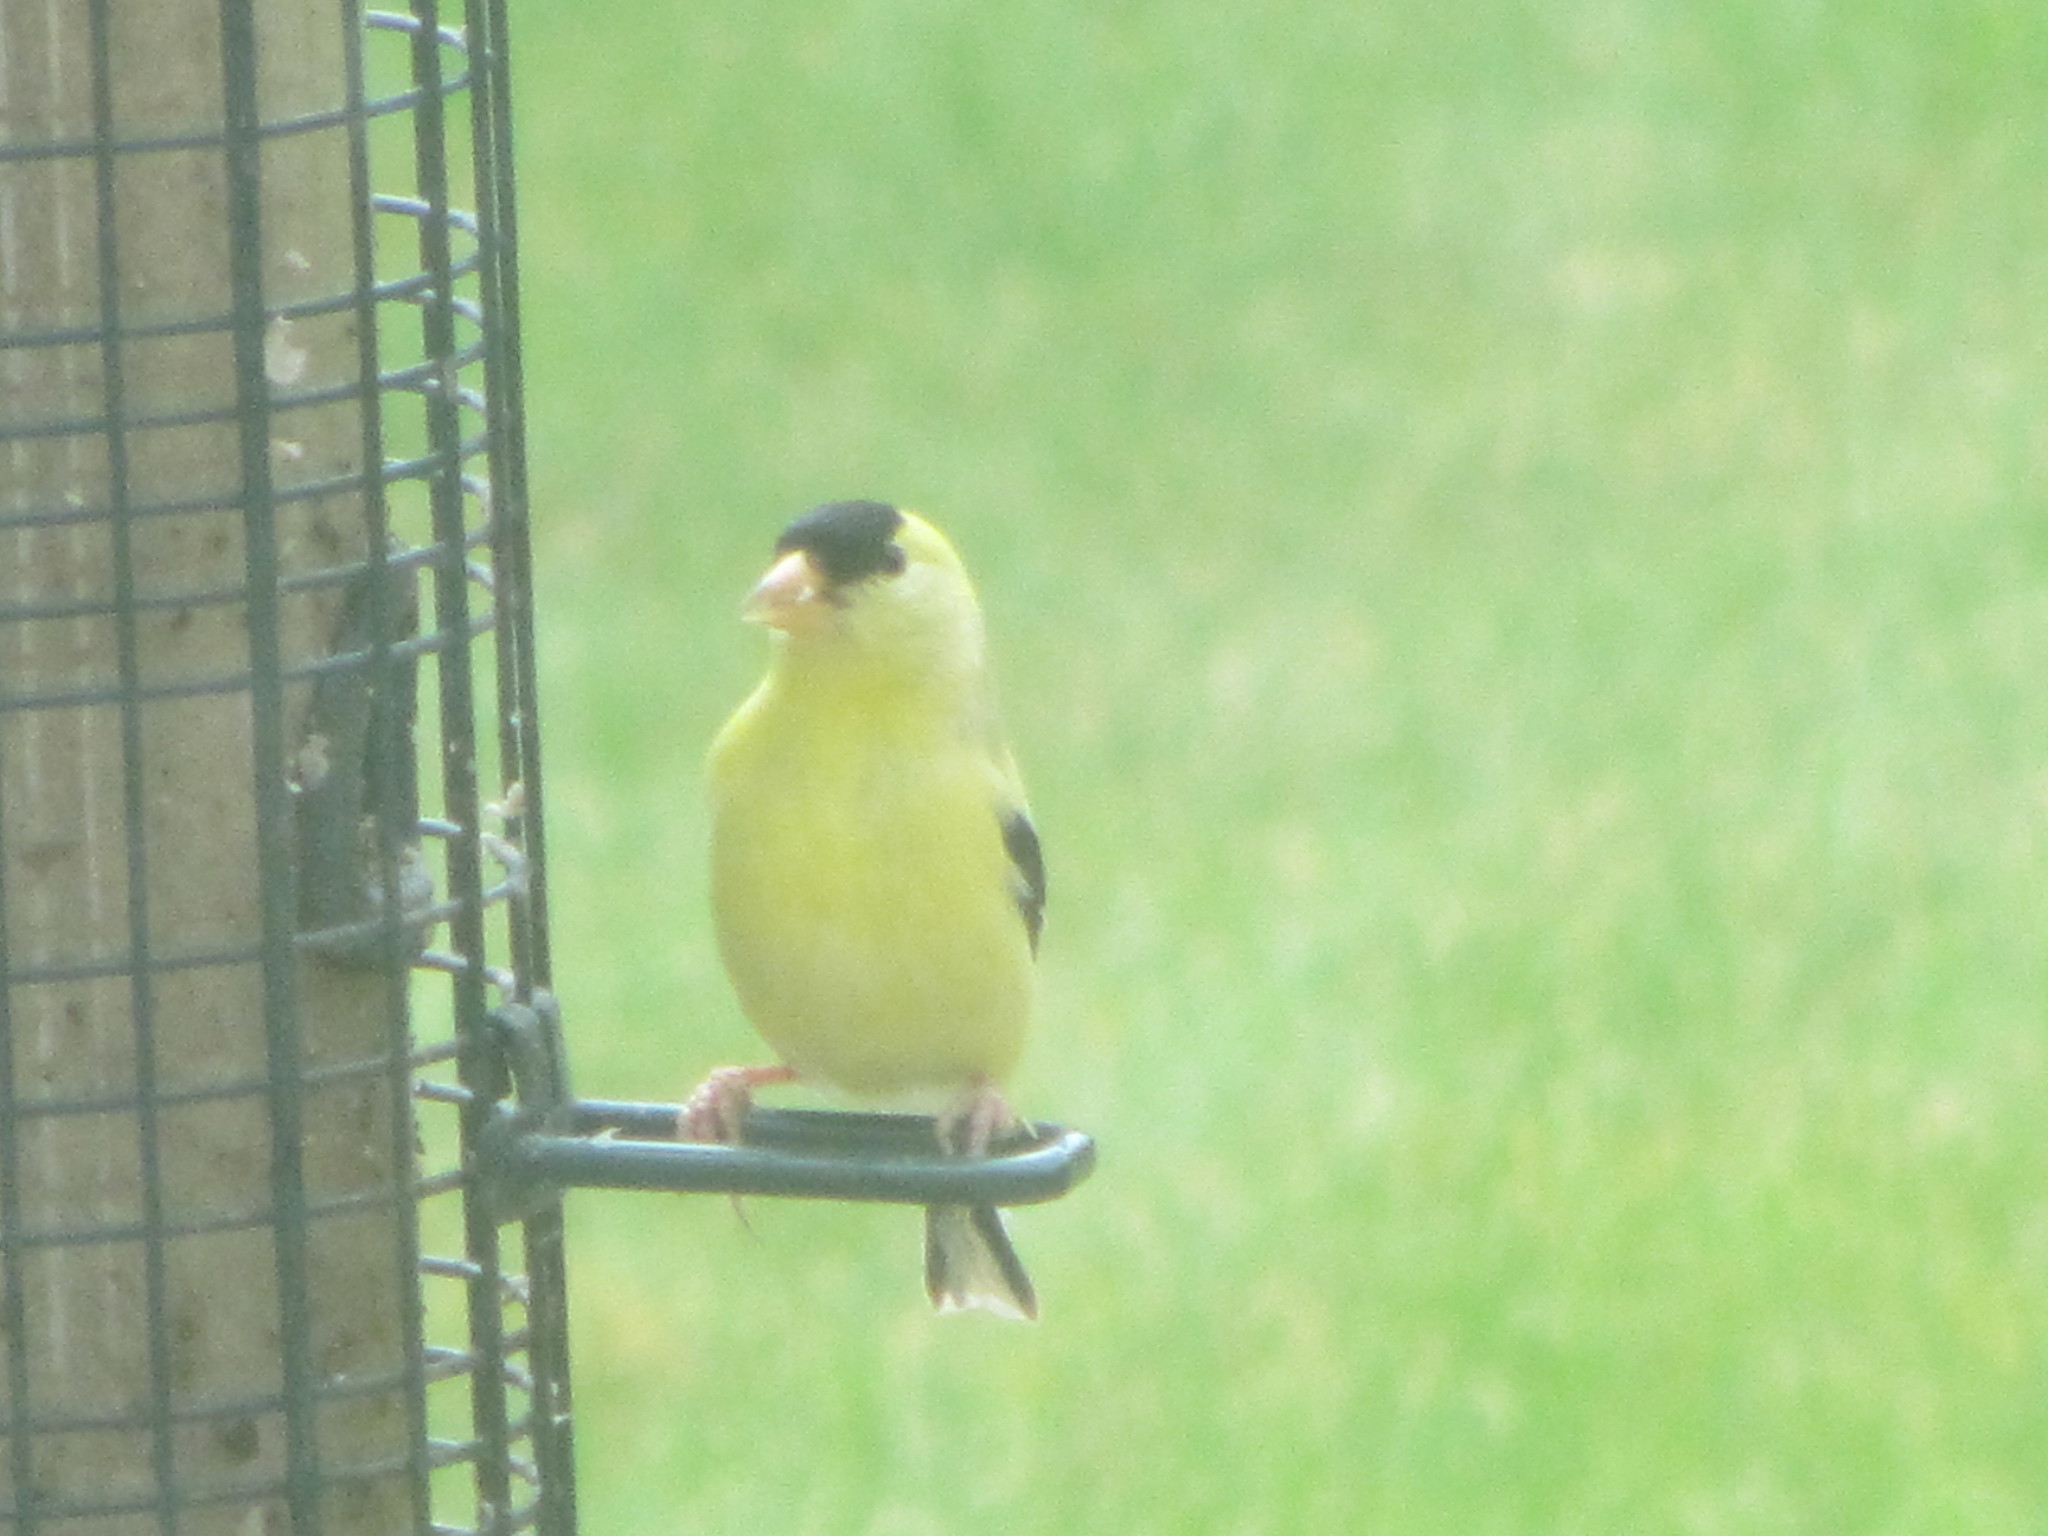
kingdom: Animalia
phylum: Chordata
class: Aves
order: Passeriformes
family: Fringillidae
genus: Spinus
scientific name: Spinus tristis
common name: American goldfinch
